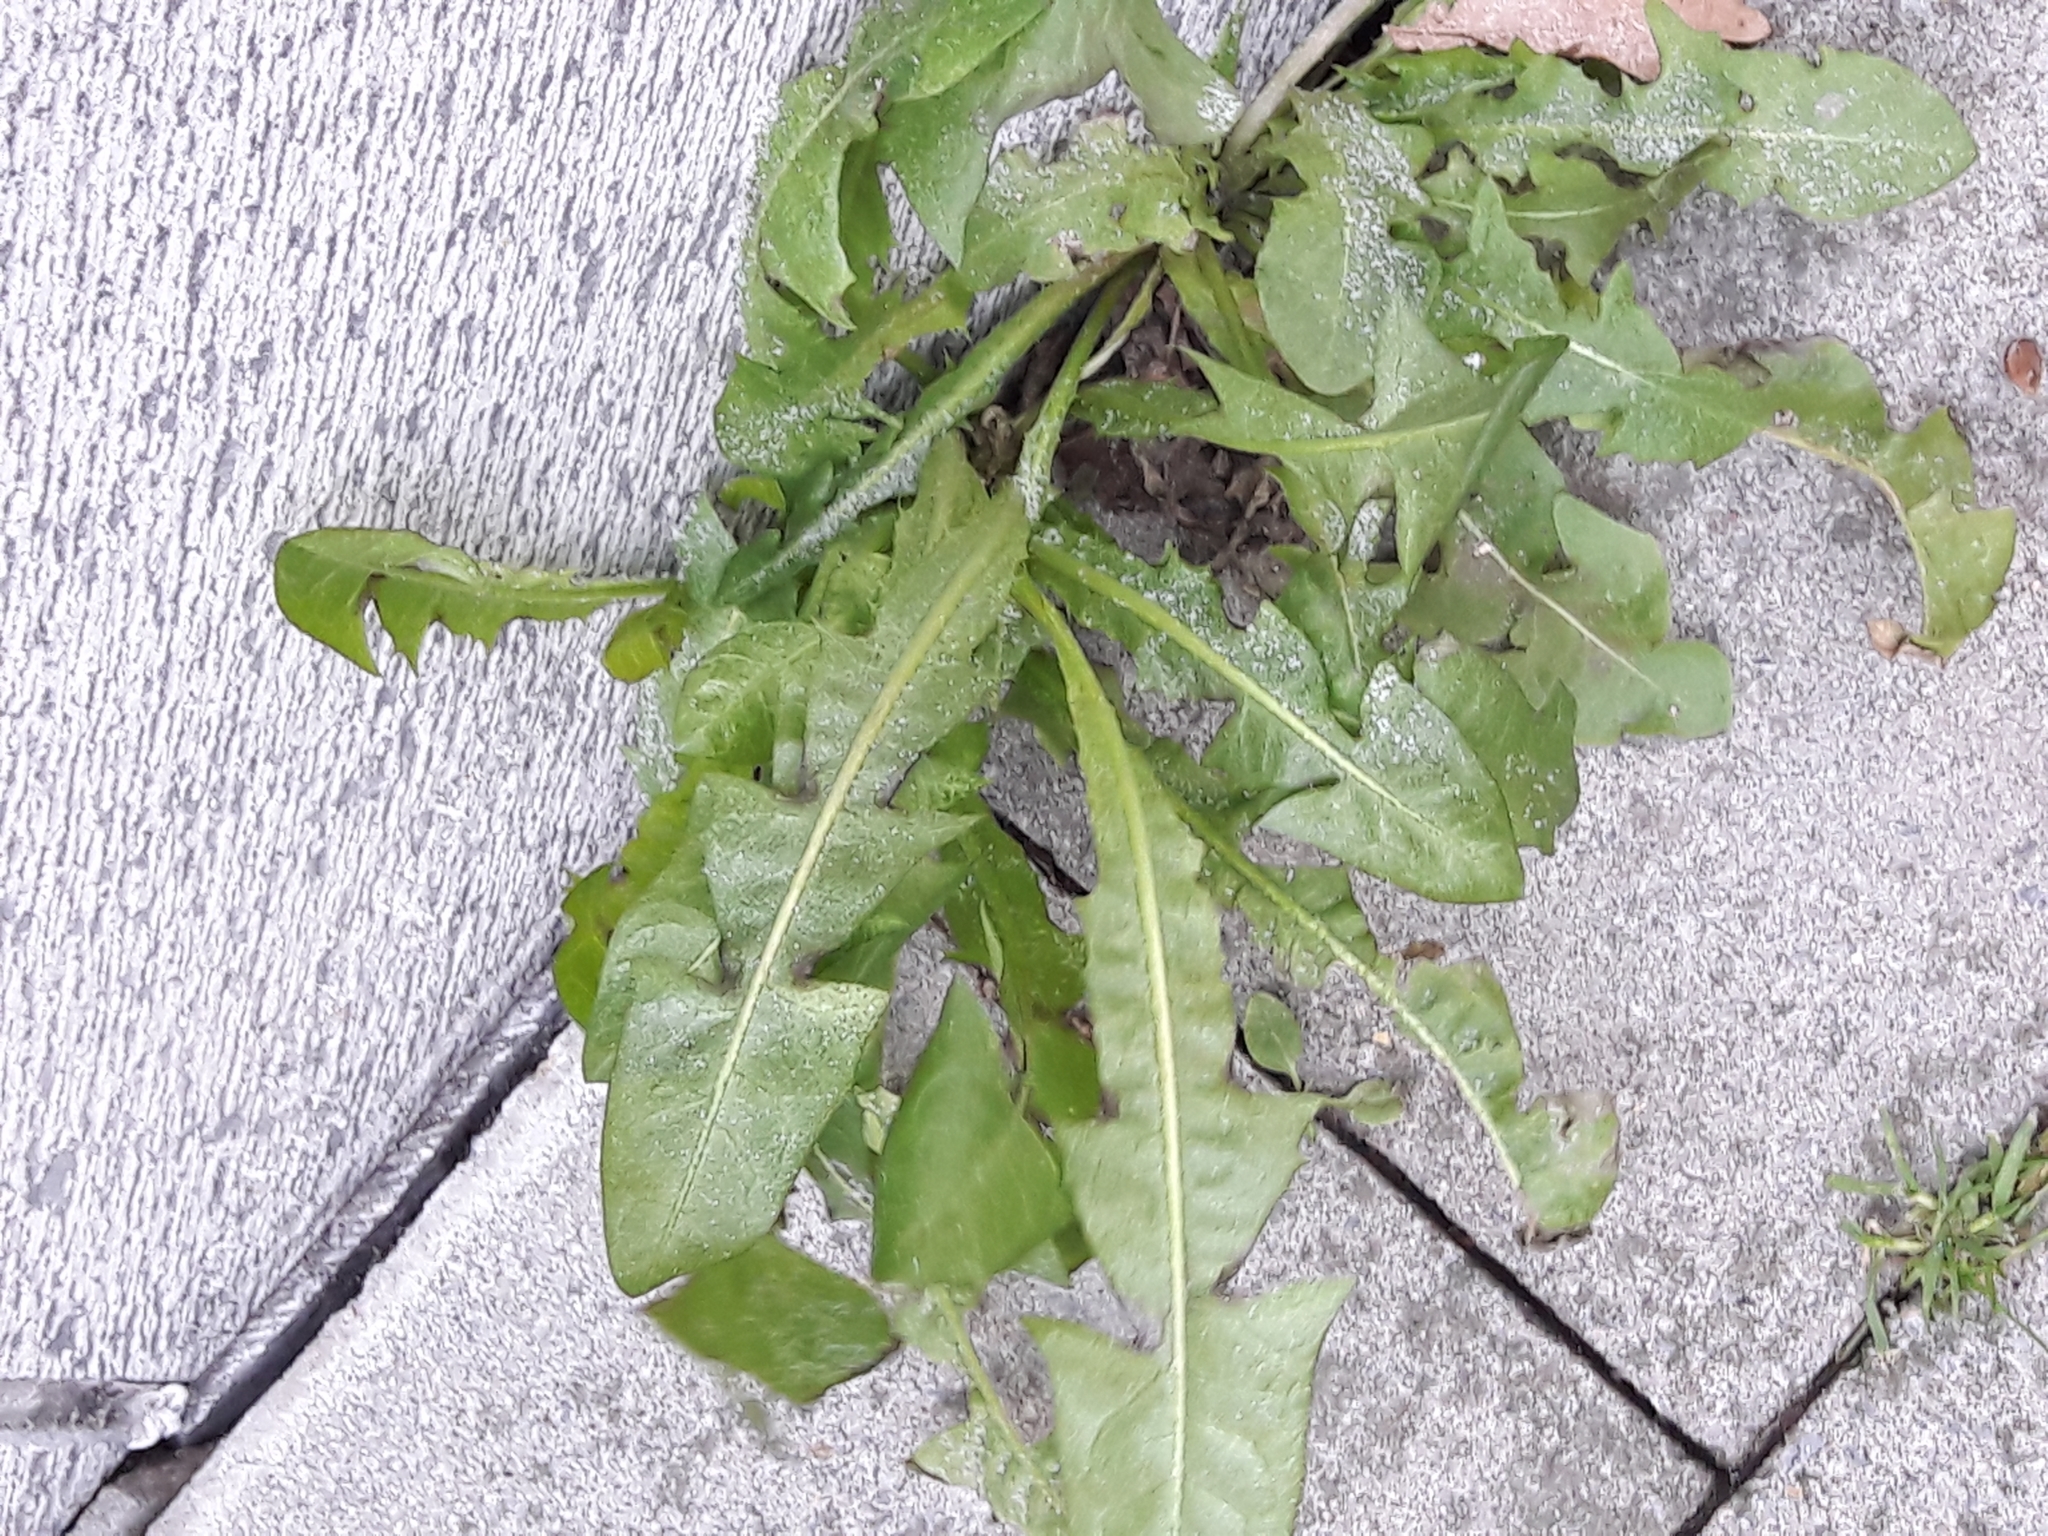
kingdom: Plantae
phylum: Tracheophyta
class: Magnoliopsida
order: Asterales
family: Asteraceae
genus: Taraxacum
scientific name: Taraxacum officinale
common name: Common dandelion
